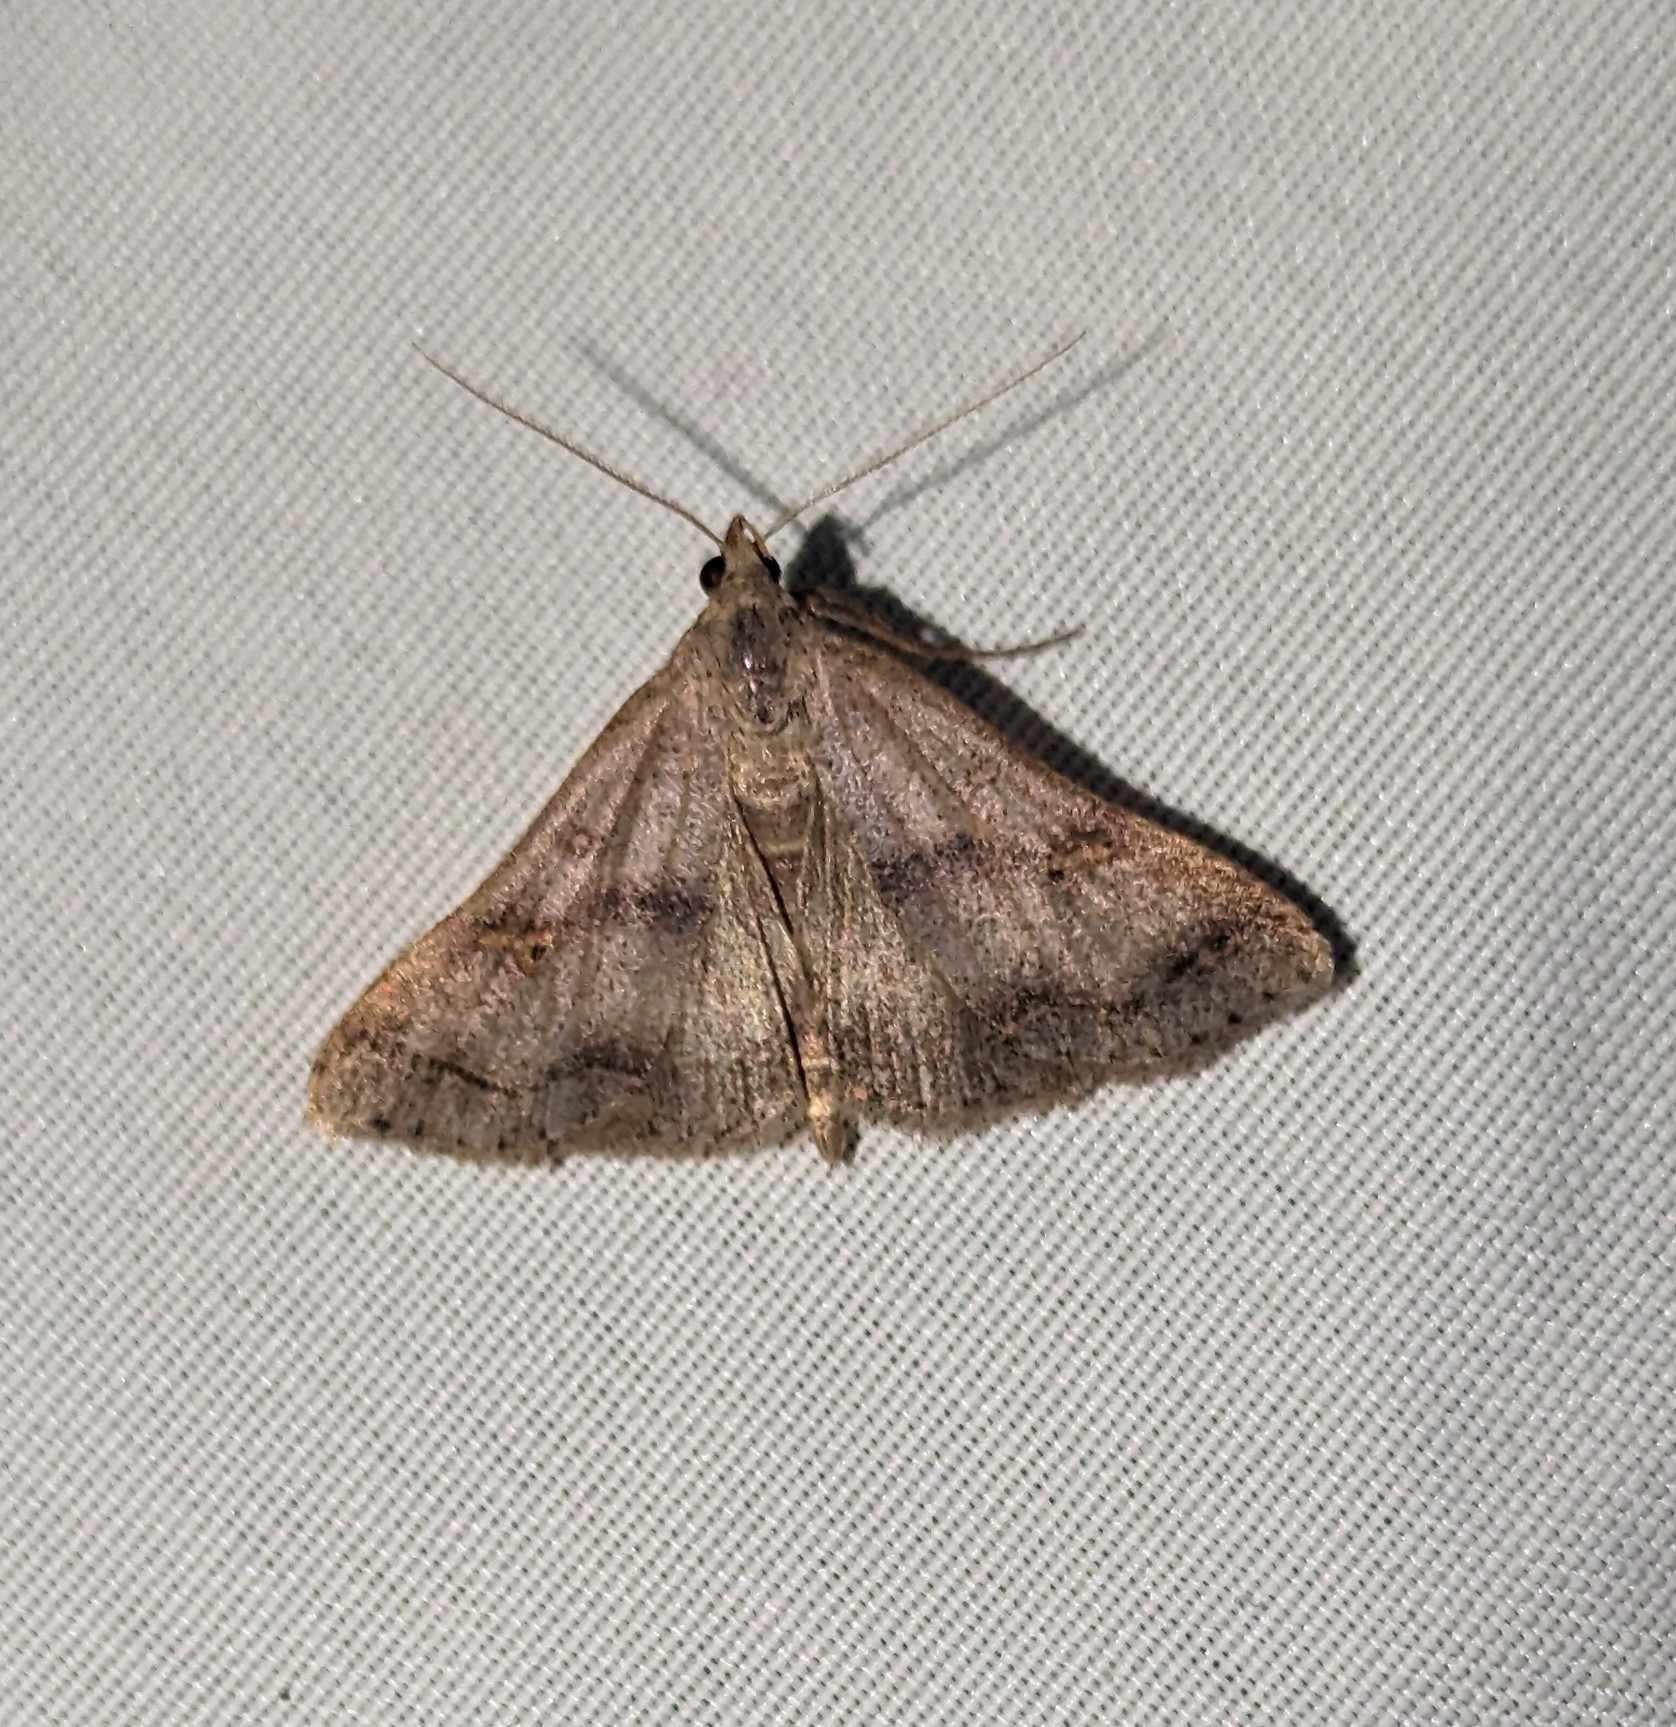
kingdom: Animalia
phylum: Arthropoda
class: Insecta
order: Lepidoptera
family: Erebidae
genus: Bleptina
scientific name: Bleptina caradrinalis
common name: Bent-winged owlet
